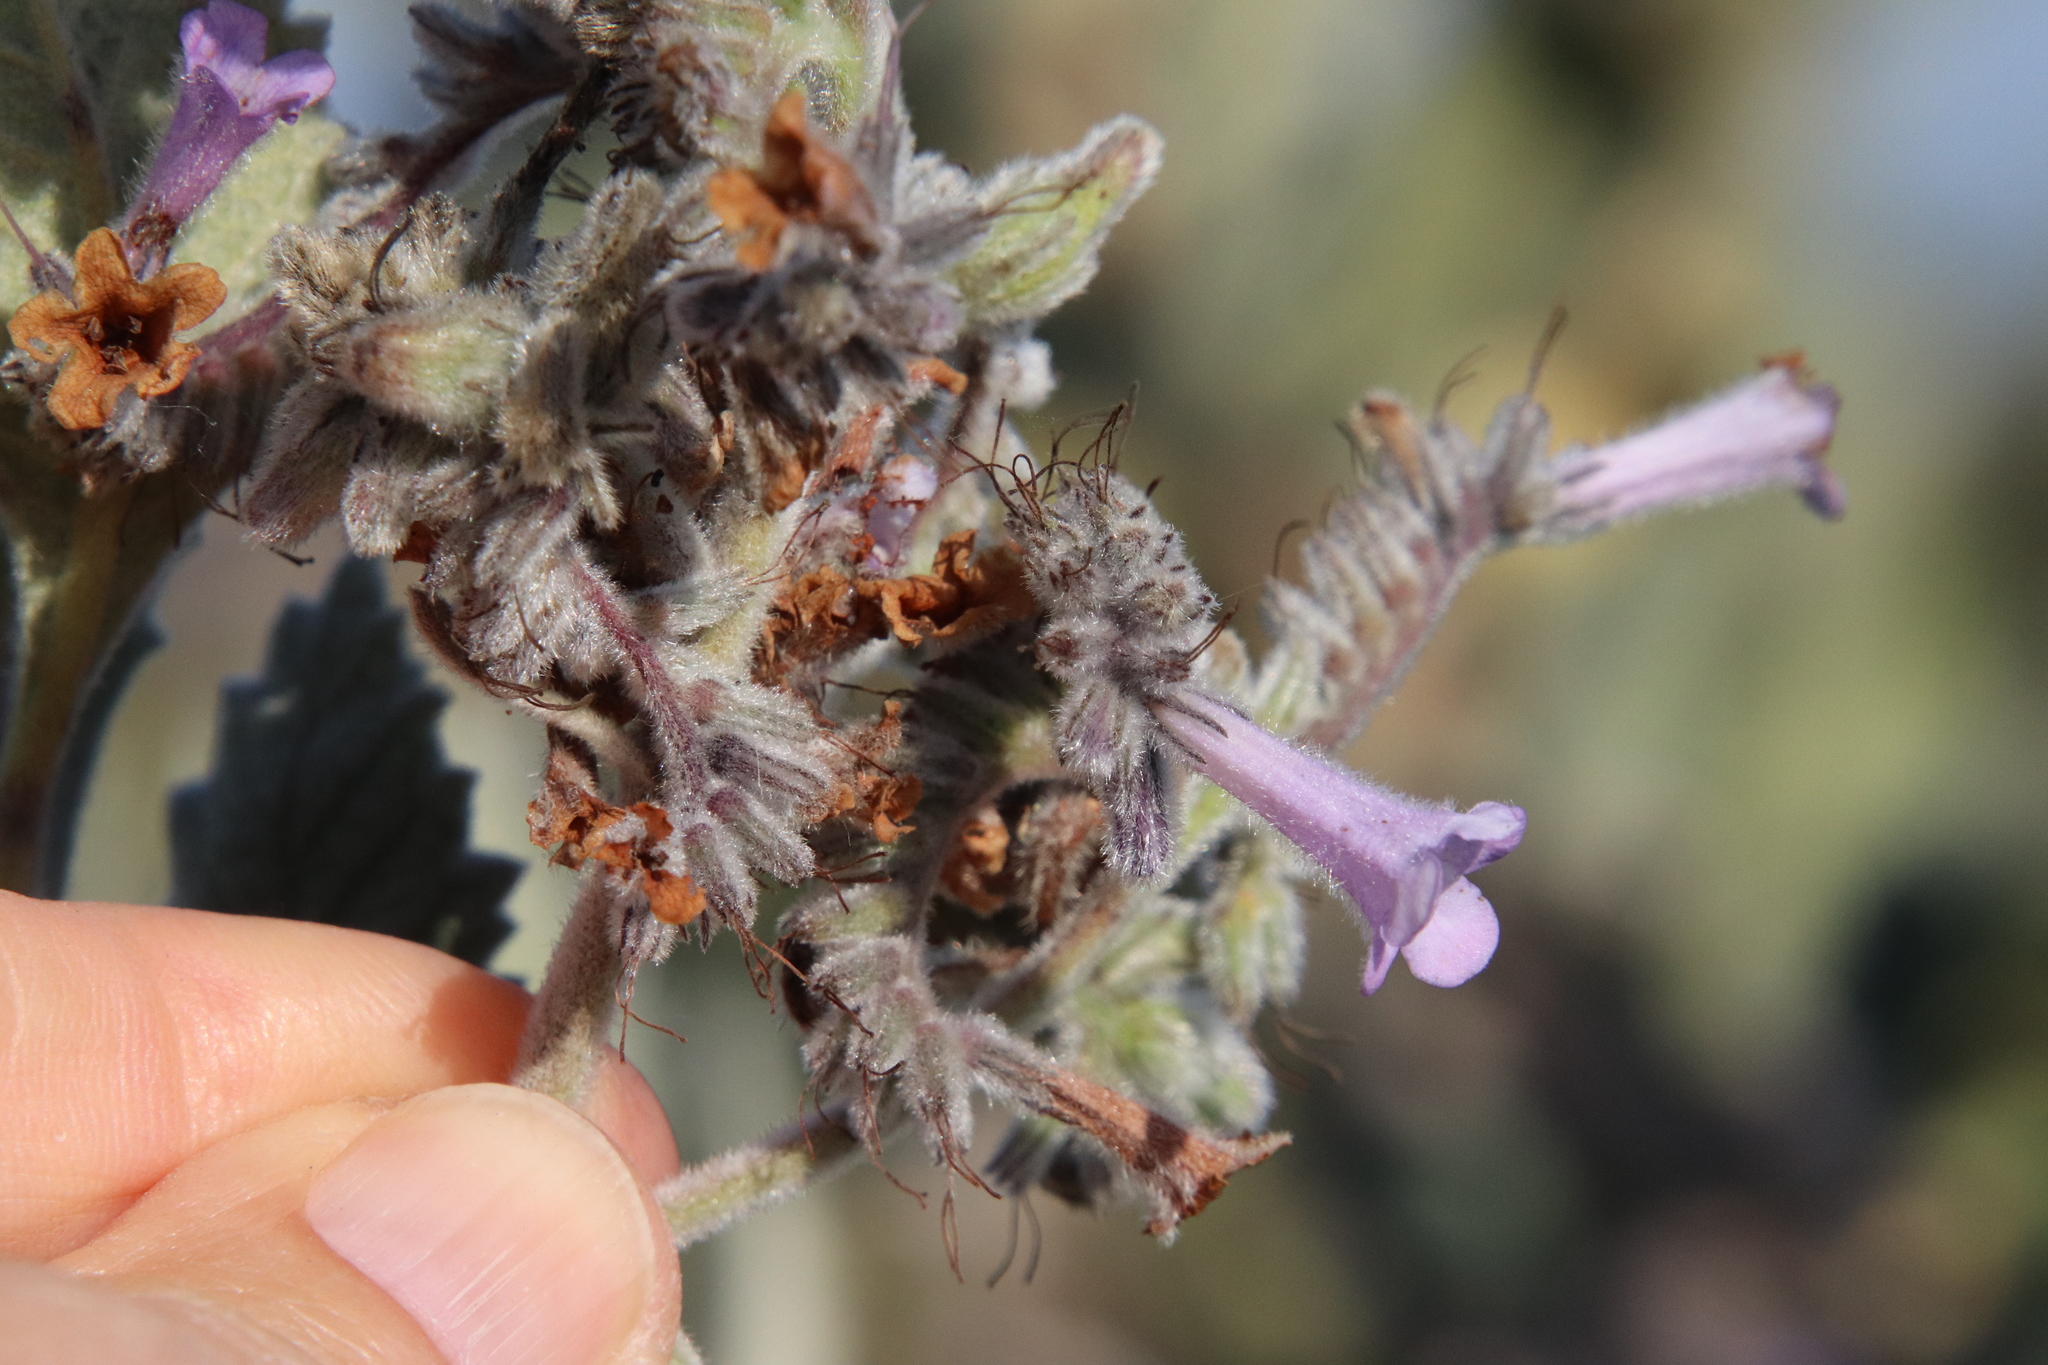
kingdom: Plantae
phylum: Tracheophyta
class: Magnoliopsida
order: Boraginales
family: Namaceae
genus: Eriodictyon
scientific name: Eriodictyon crassifolium
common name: Thick-leaf yerba-santa
